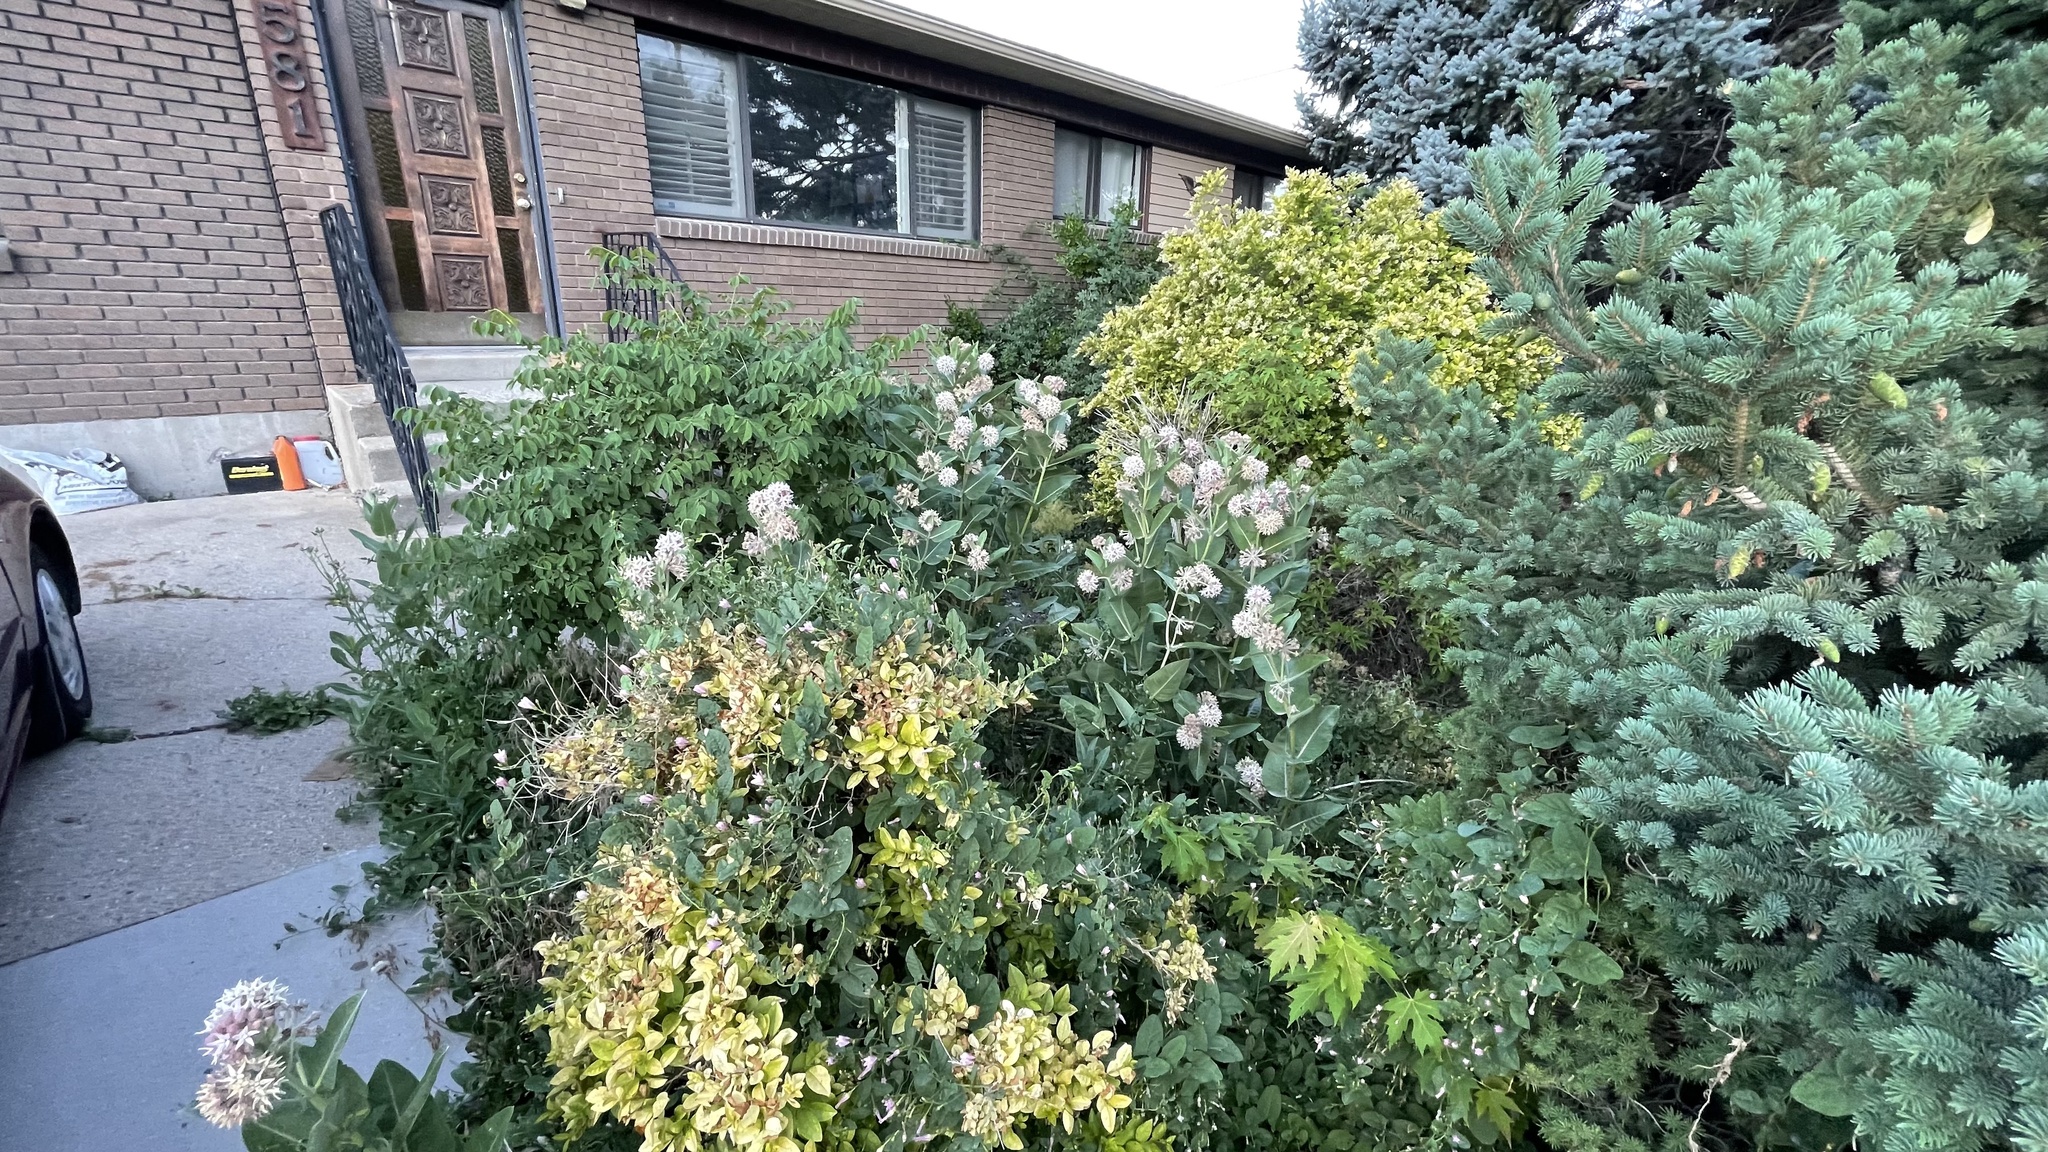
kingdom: Plantae
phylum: Tracheophyta
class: Magnoliopsida
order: Gentianales
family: Apocynaceae
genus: Asclepias
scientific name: Asclepias speciosa
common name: Showy milkweed
